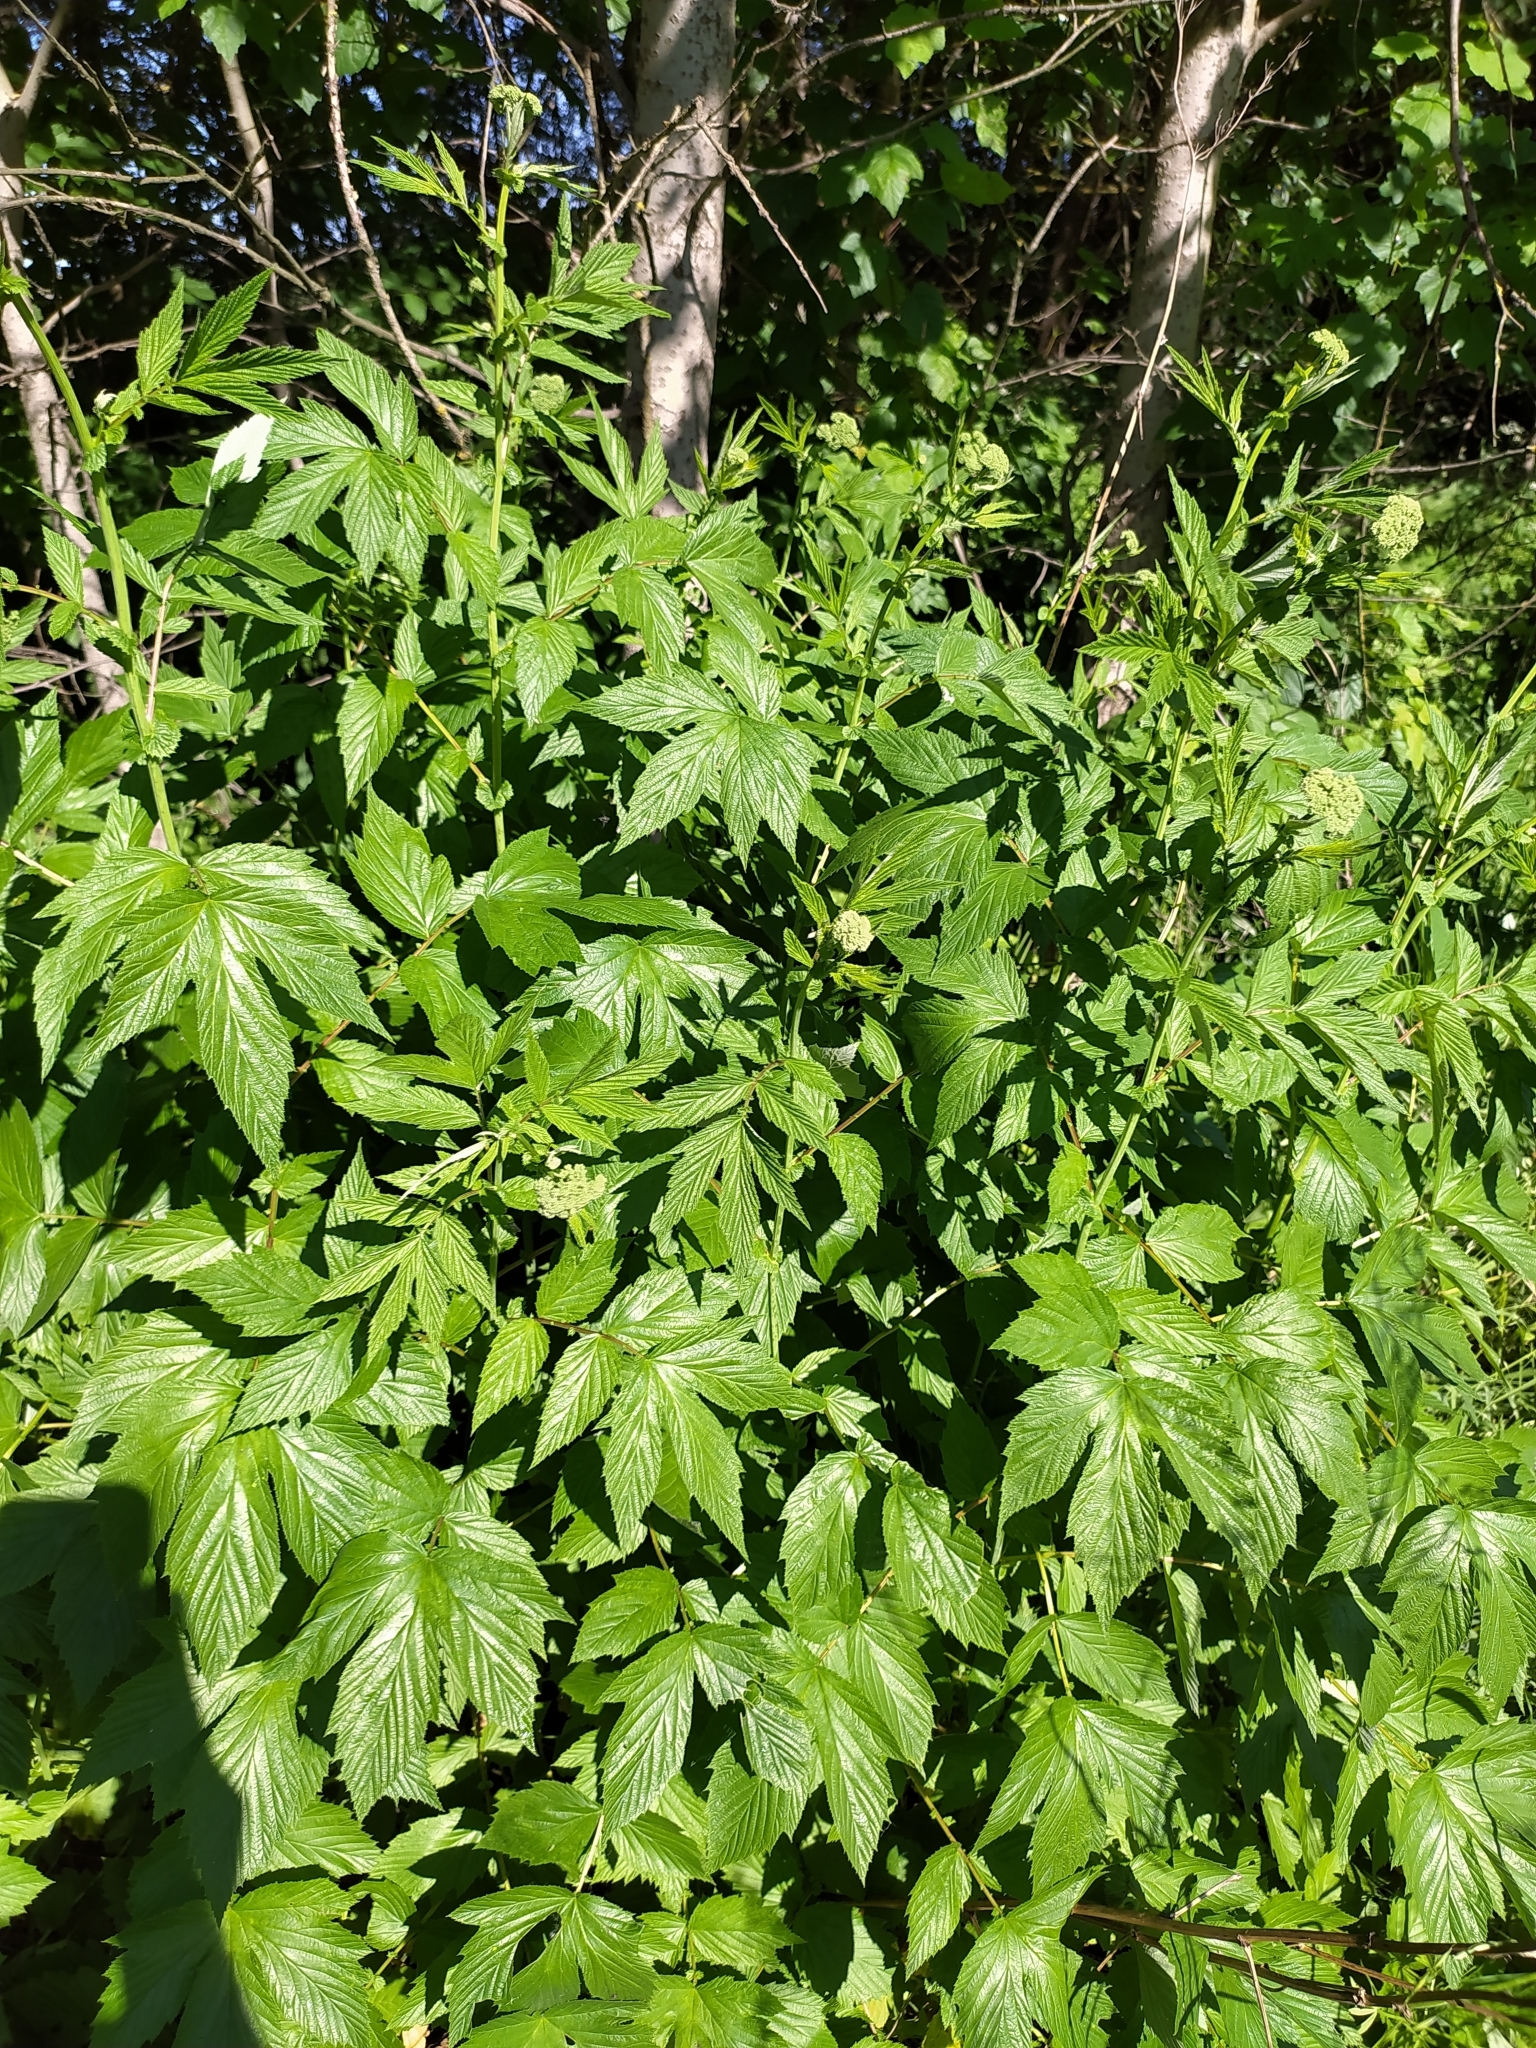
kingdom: Plantae
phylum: Tracheophyta
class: Magnoliopsida
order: Rosales
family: Rosaceae
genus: Filipendula
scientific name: Filipendula ulmaria
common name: Meadowsweet
